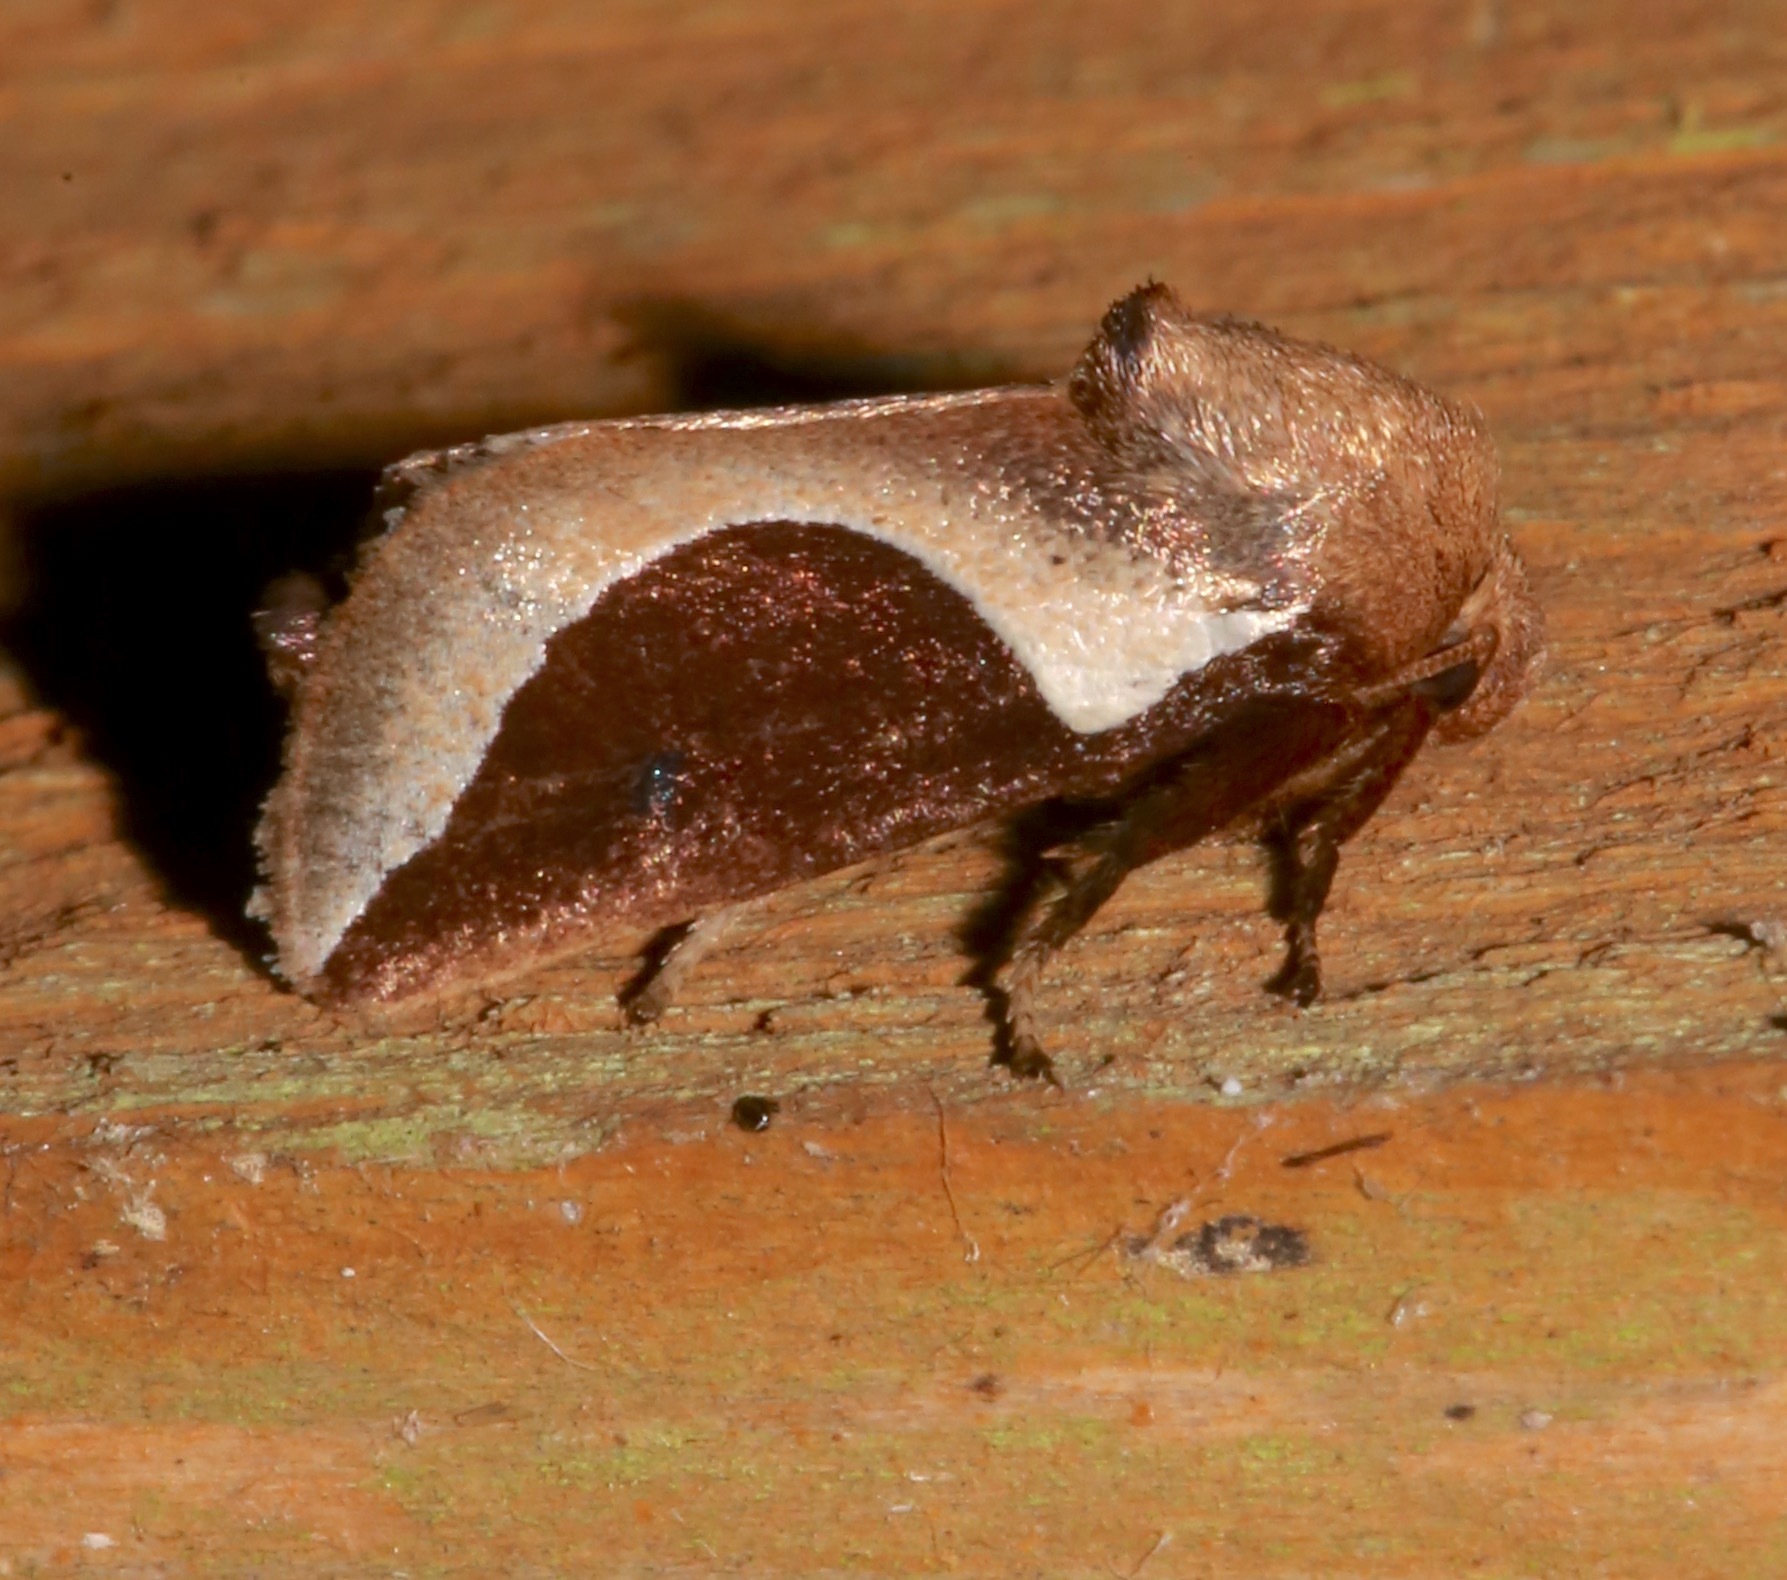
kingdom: Animalia
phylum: Arthropoda
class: Insecta
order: Lepidoptera
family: Limacodidae
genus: Prolimacodes
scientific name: Prolimacodes badia
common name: Skiff moth
